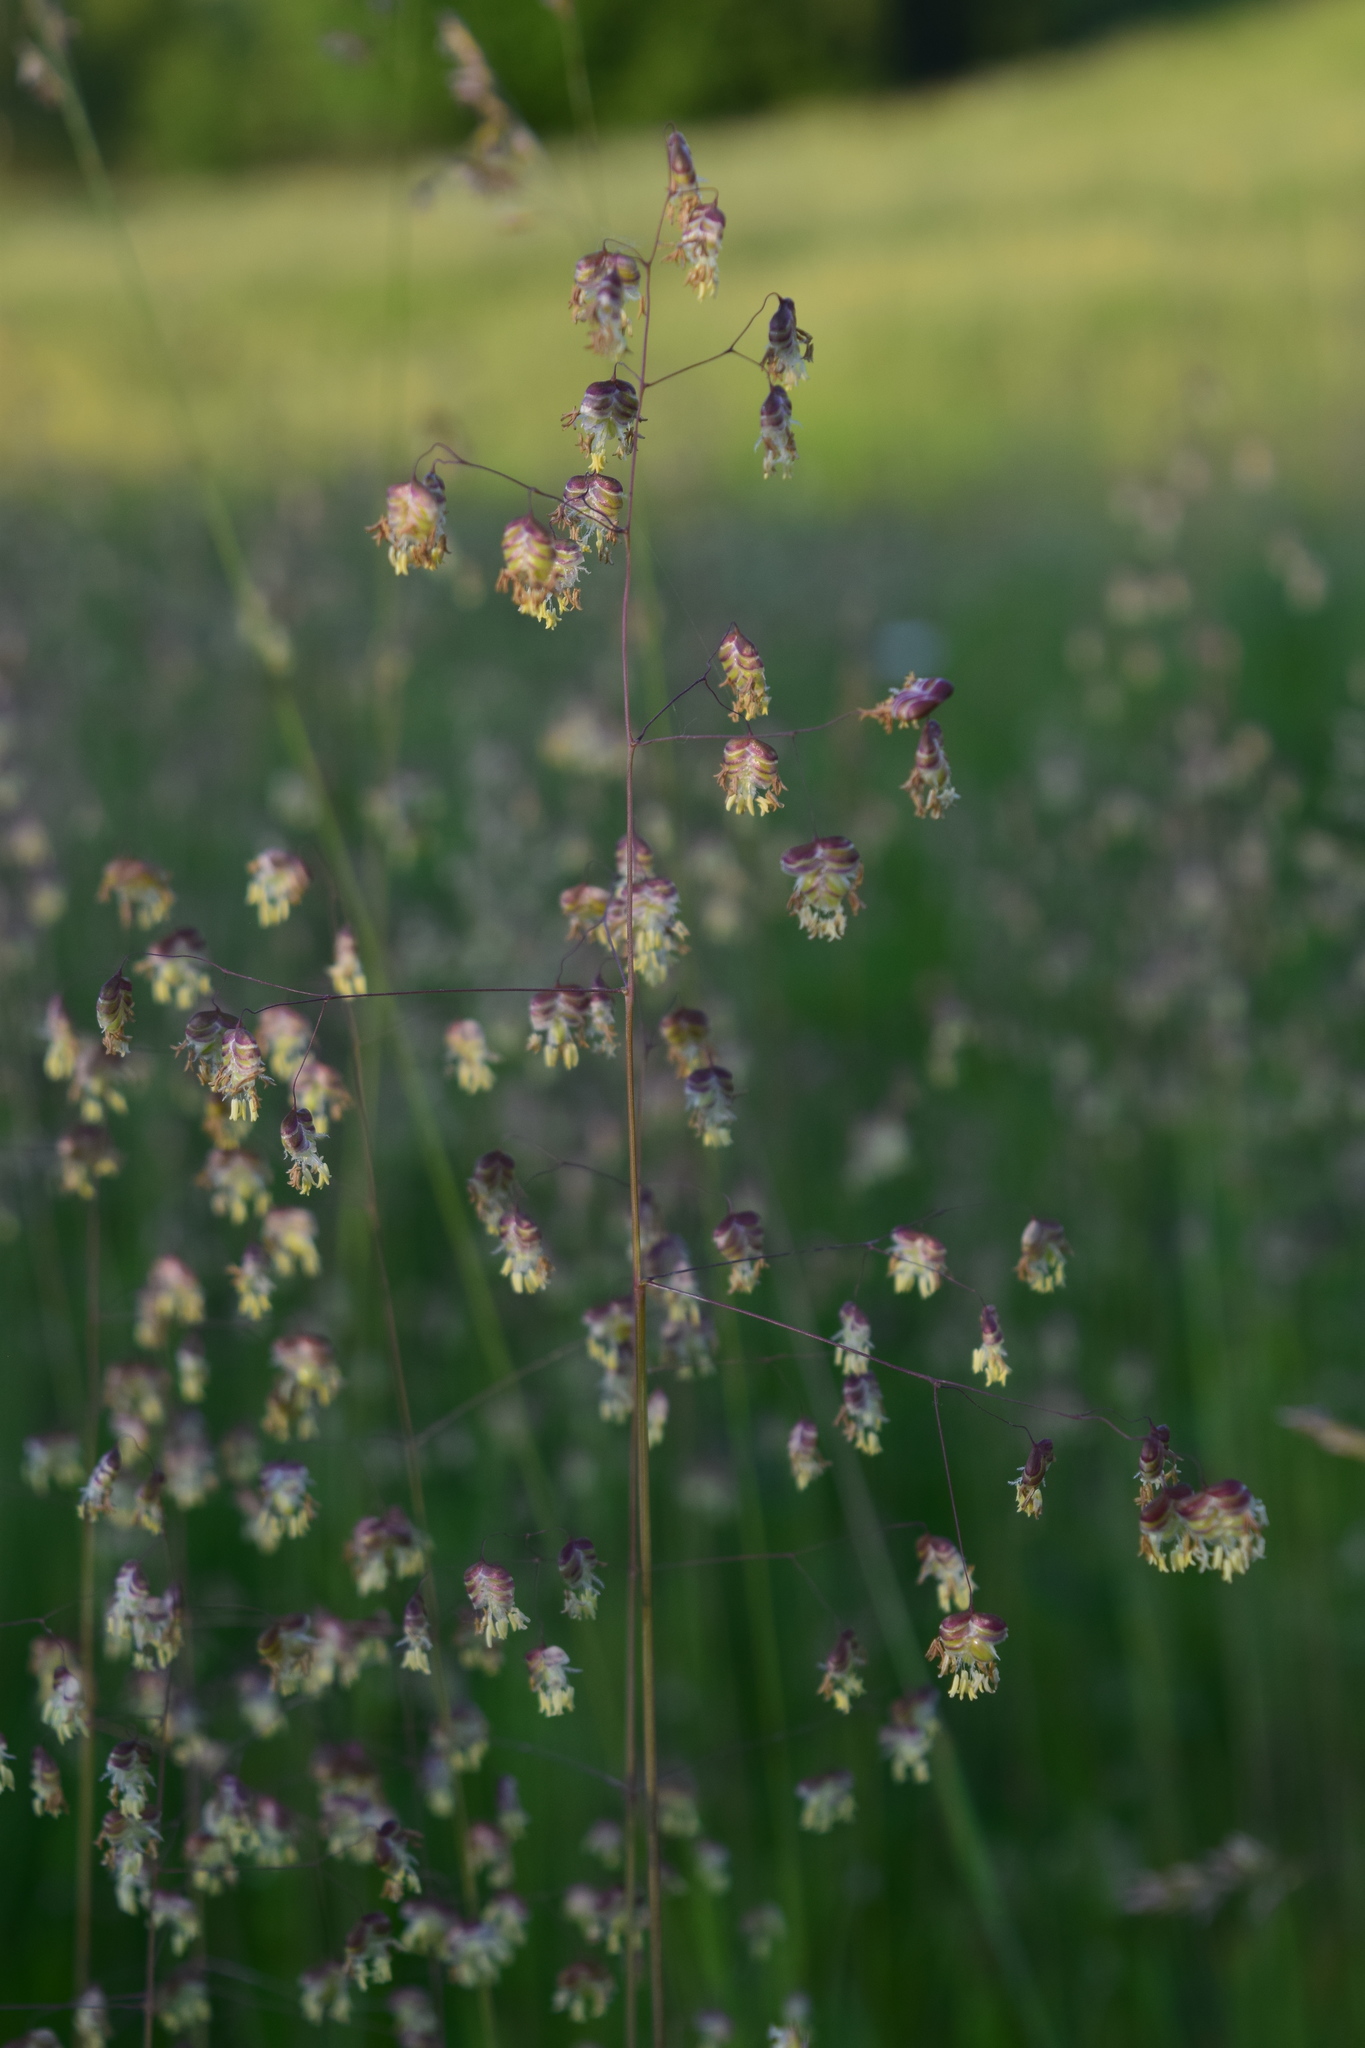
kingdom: Plantae
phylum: Tracheophyta
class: Liliopsida
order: Poales
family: Poaceae
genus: Briza
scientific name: Briza media
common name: Quaking grass
